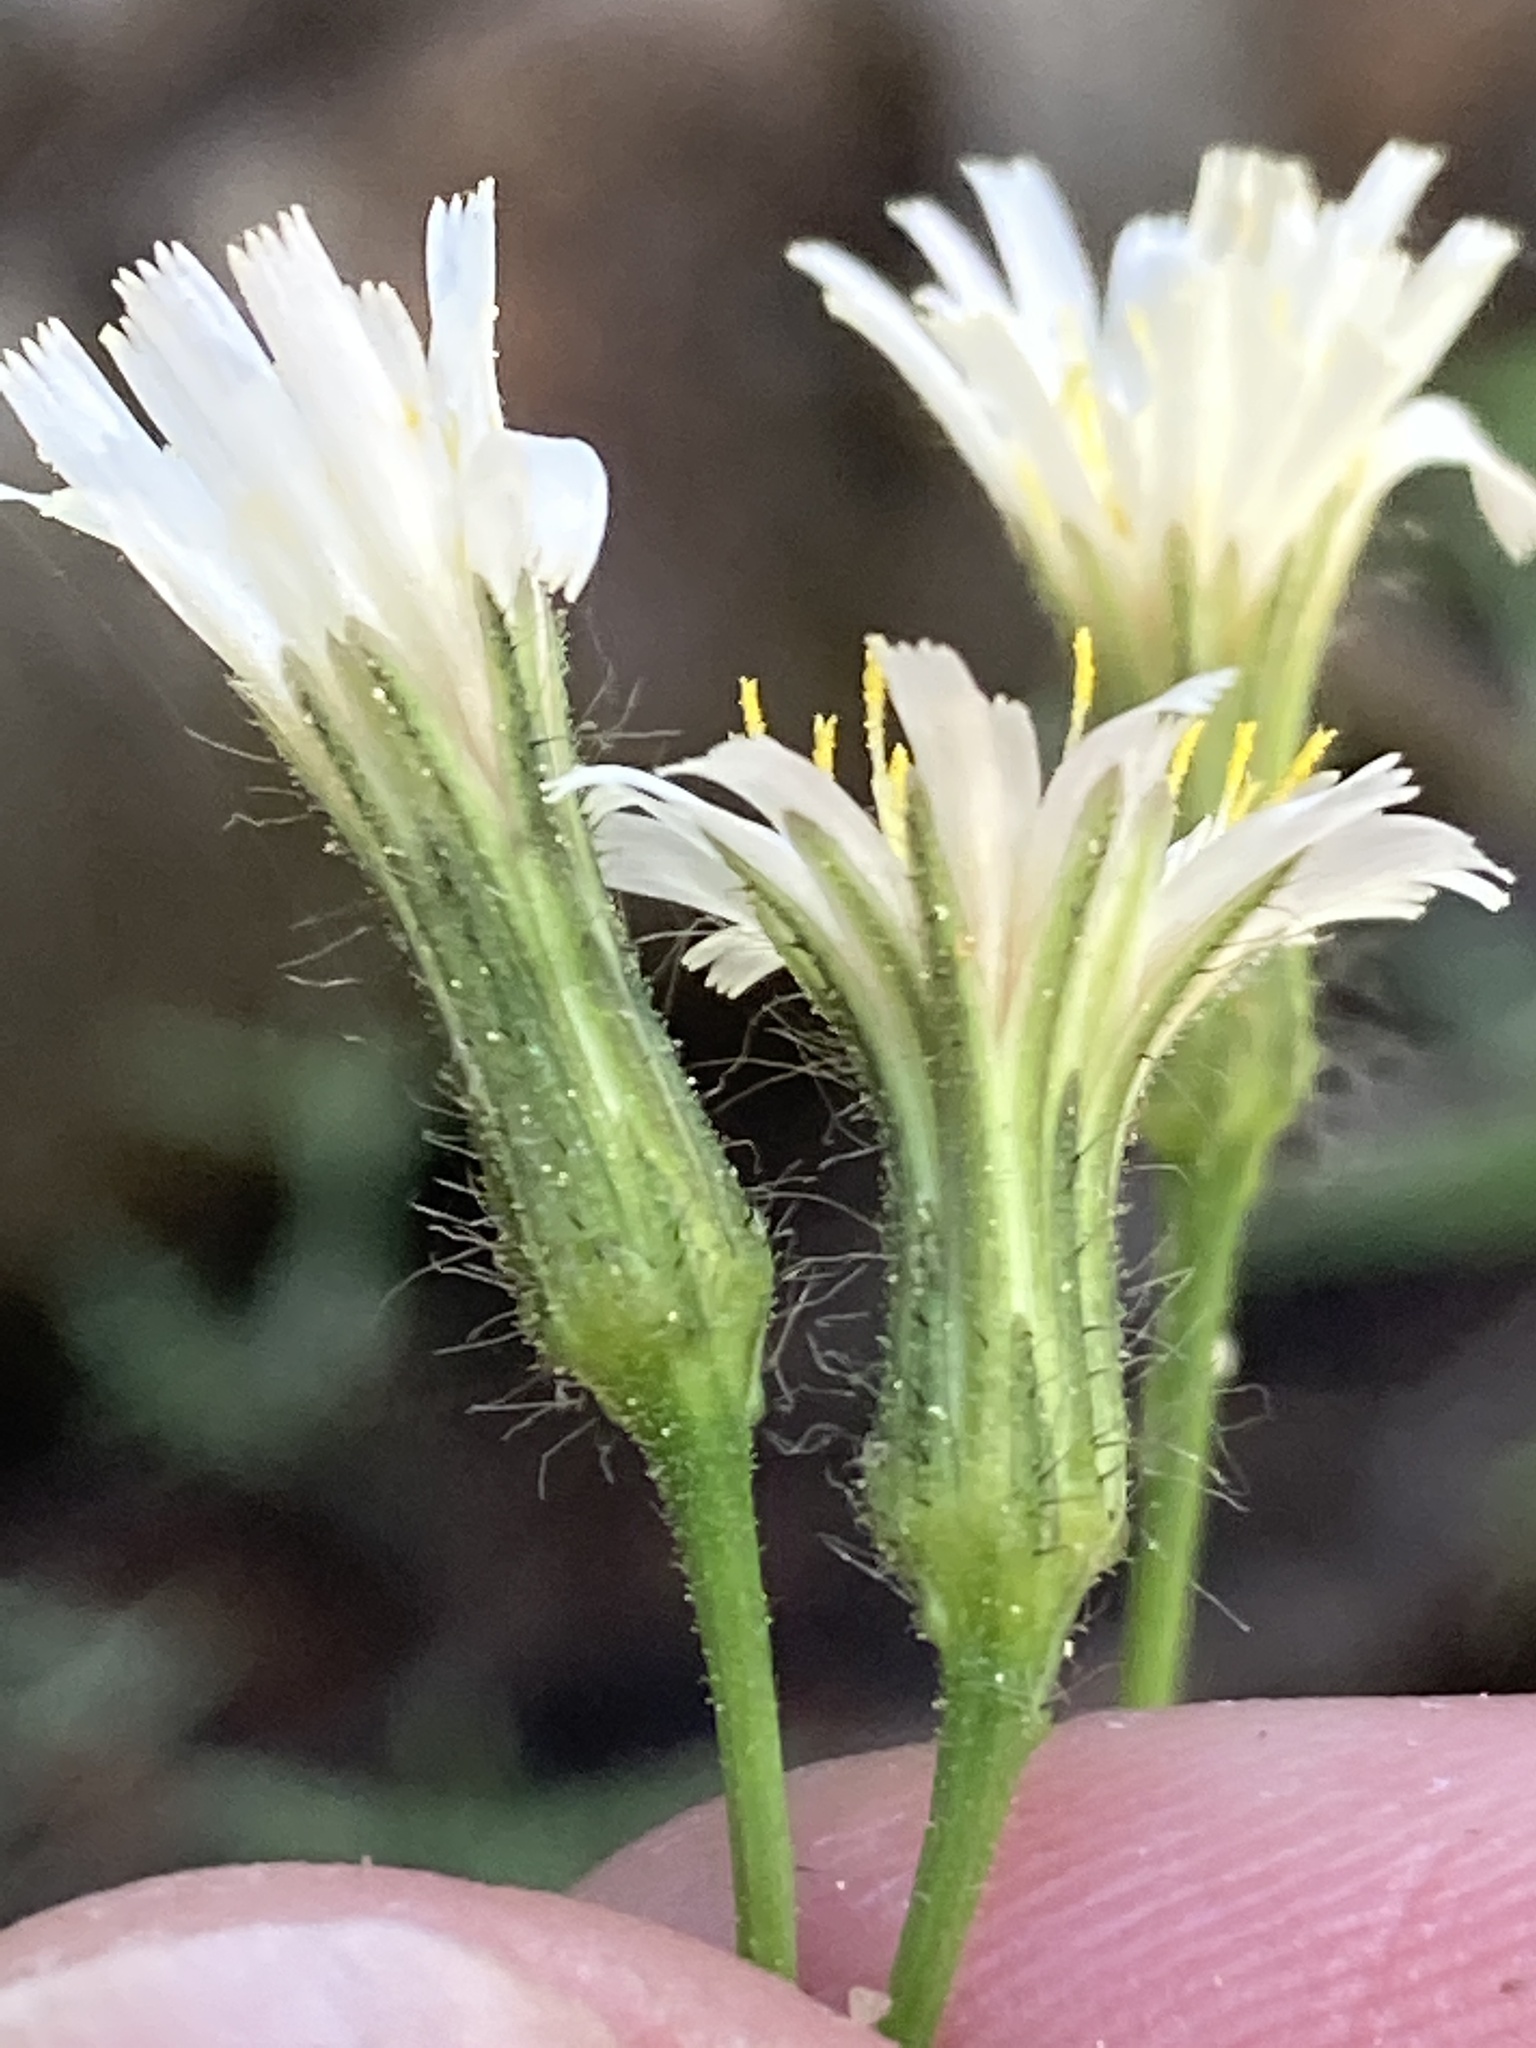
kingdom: Plantae
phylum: Tracheophyta
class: Magnoliopsida
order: Asterales
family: Asteraceae
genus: Hieracium
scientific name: Hieracium albiflorum
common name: White hawkweed
